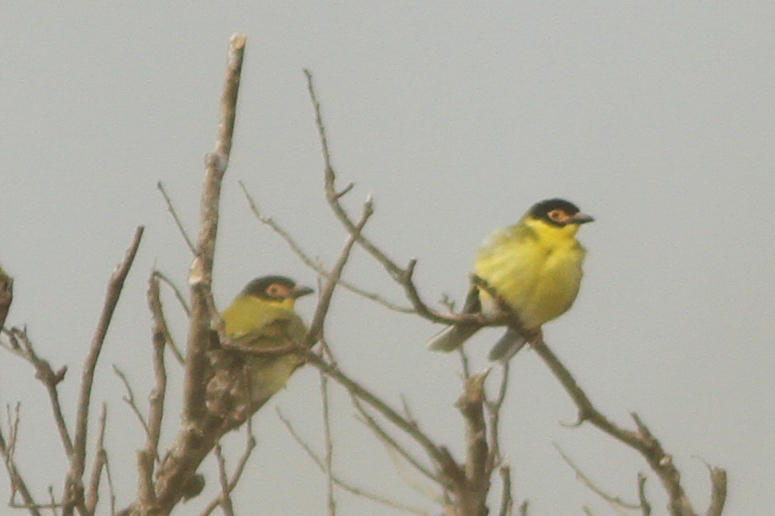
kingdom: Animalia
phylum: Chordata
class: Aves
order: Passeriformes
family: Oriolidae
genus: Sphecotheres
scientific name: Sphecotheres vieilloti
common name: Australasian figbird
